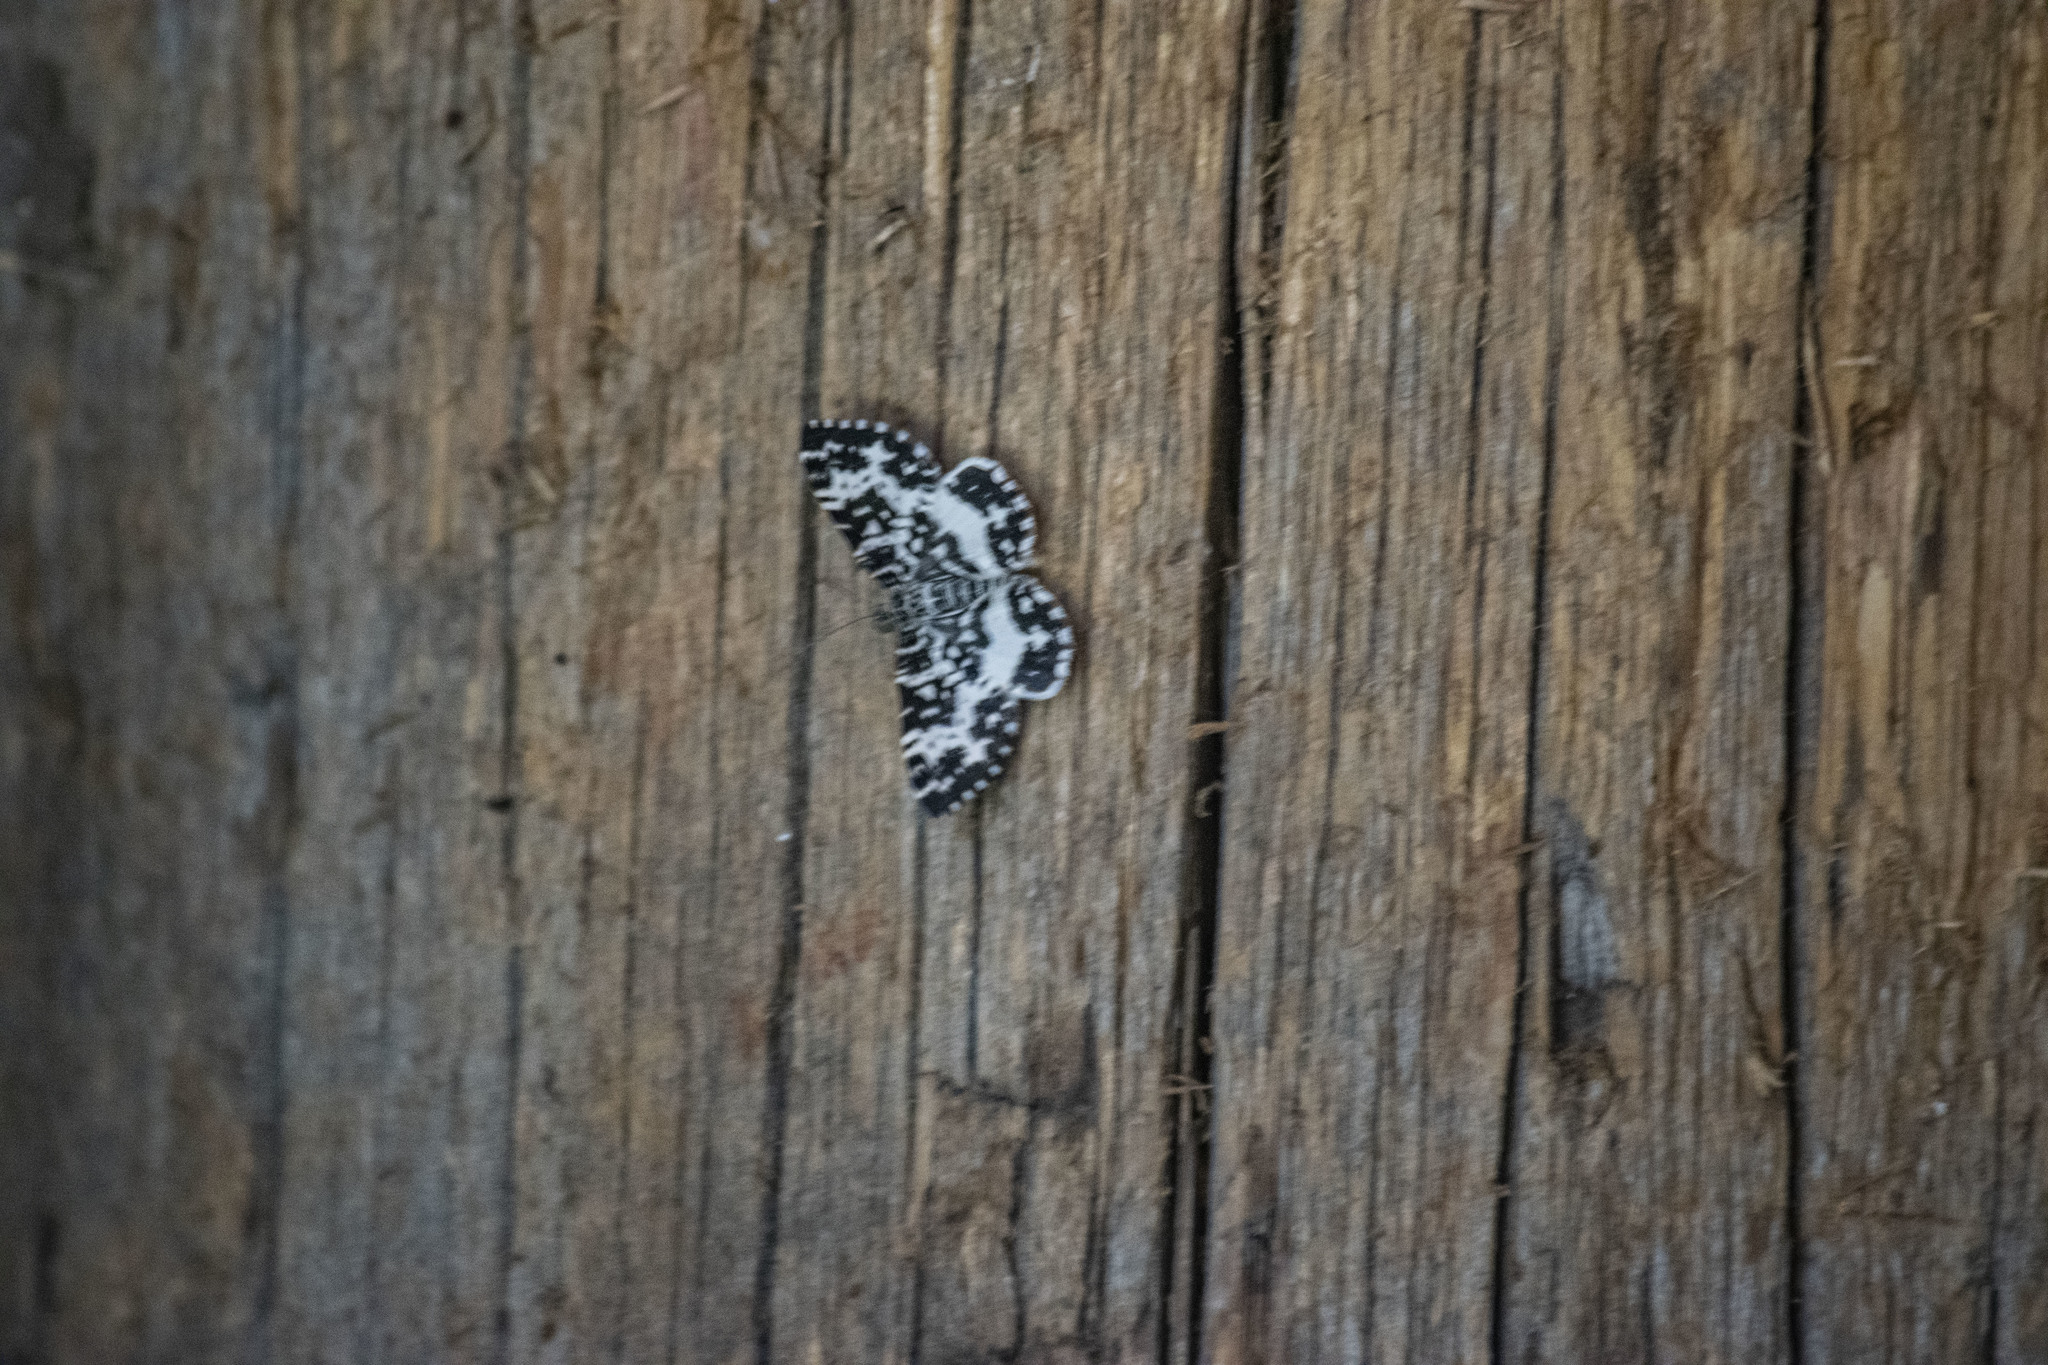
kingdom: Animalia
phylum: Arthropoda
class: Insecta
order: Lepidoptera
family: Geometridae
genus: Rheumaptera
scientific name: Rheumaptera hastata
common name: Argent & sable
